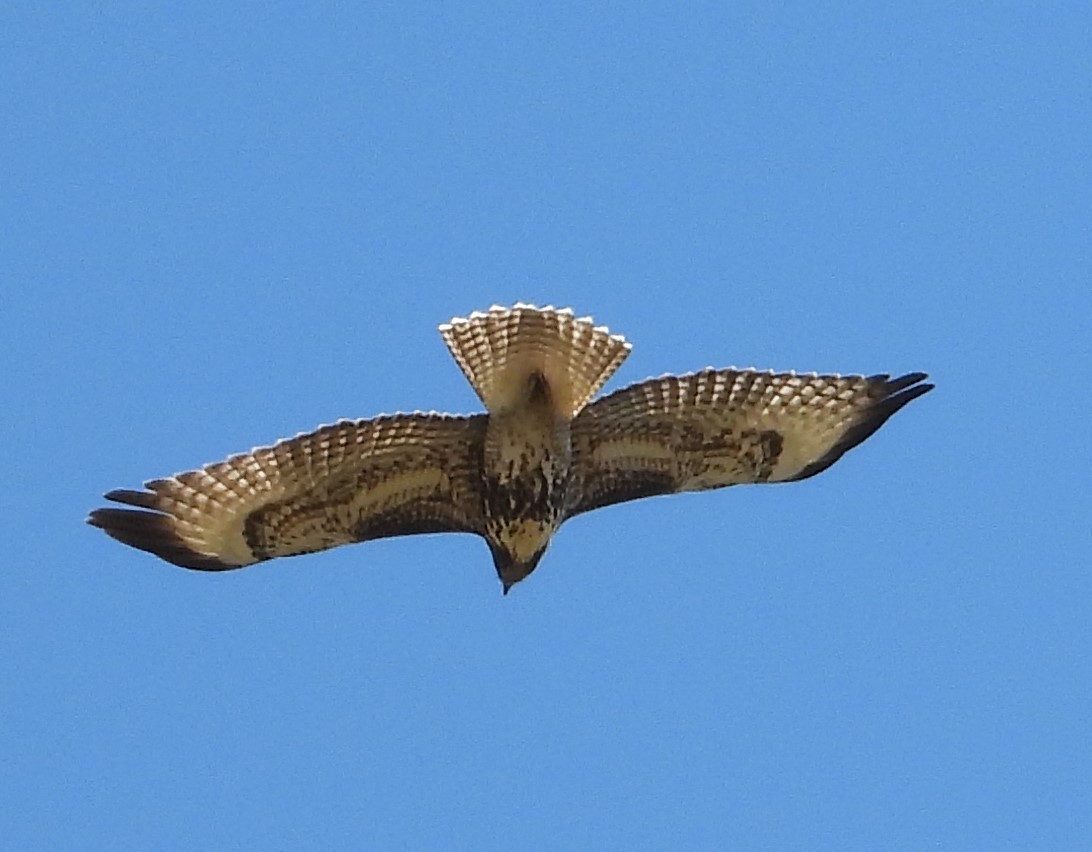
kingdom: Animalia
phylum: Chordata
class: Aves
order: Accipitriformes
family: Accipitridae
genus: Buteo
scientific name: Buteo jamaicensis
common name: Red-tailed hawk
